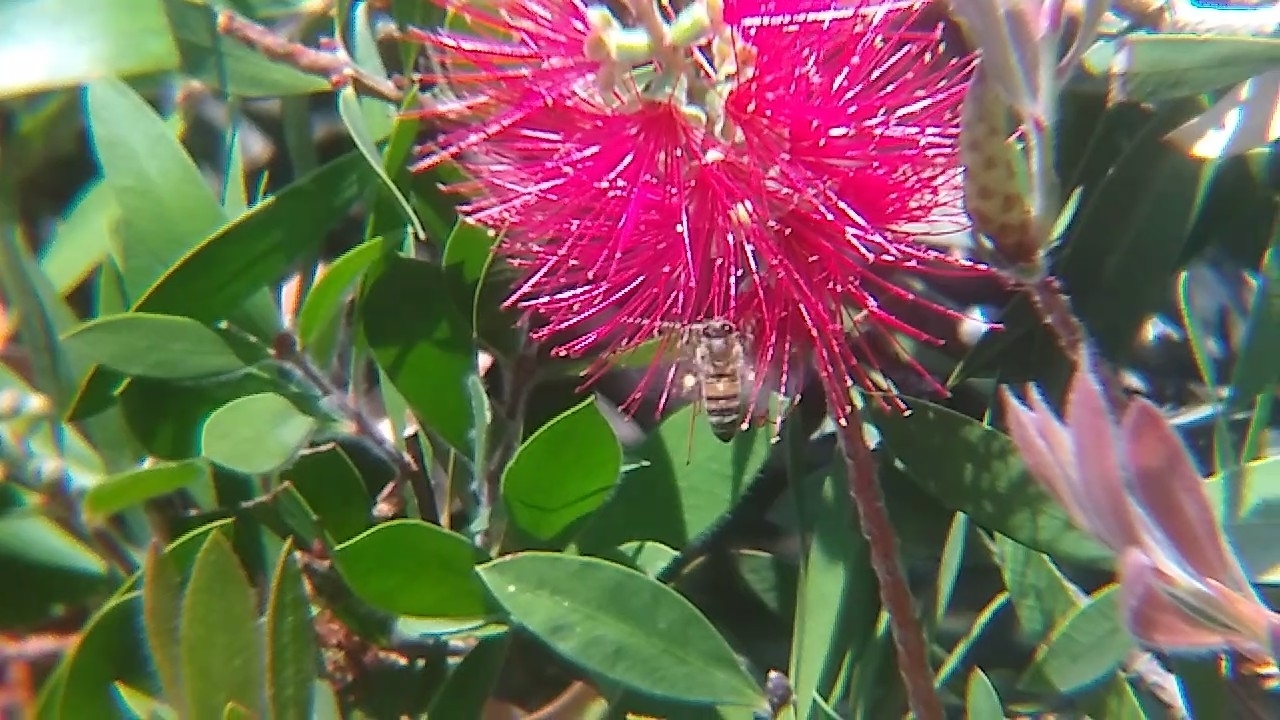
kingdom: Animalia
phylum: Arthropoda
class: Insecta
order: Hymenoptera
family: Apidae
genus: Apis
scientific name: Apis mellifera
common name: Honey bee
